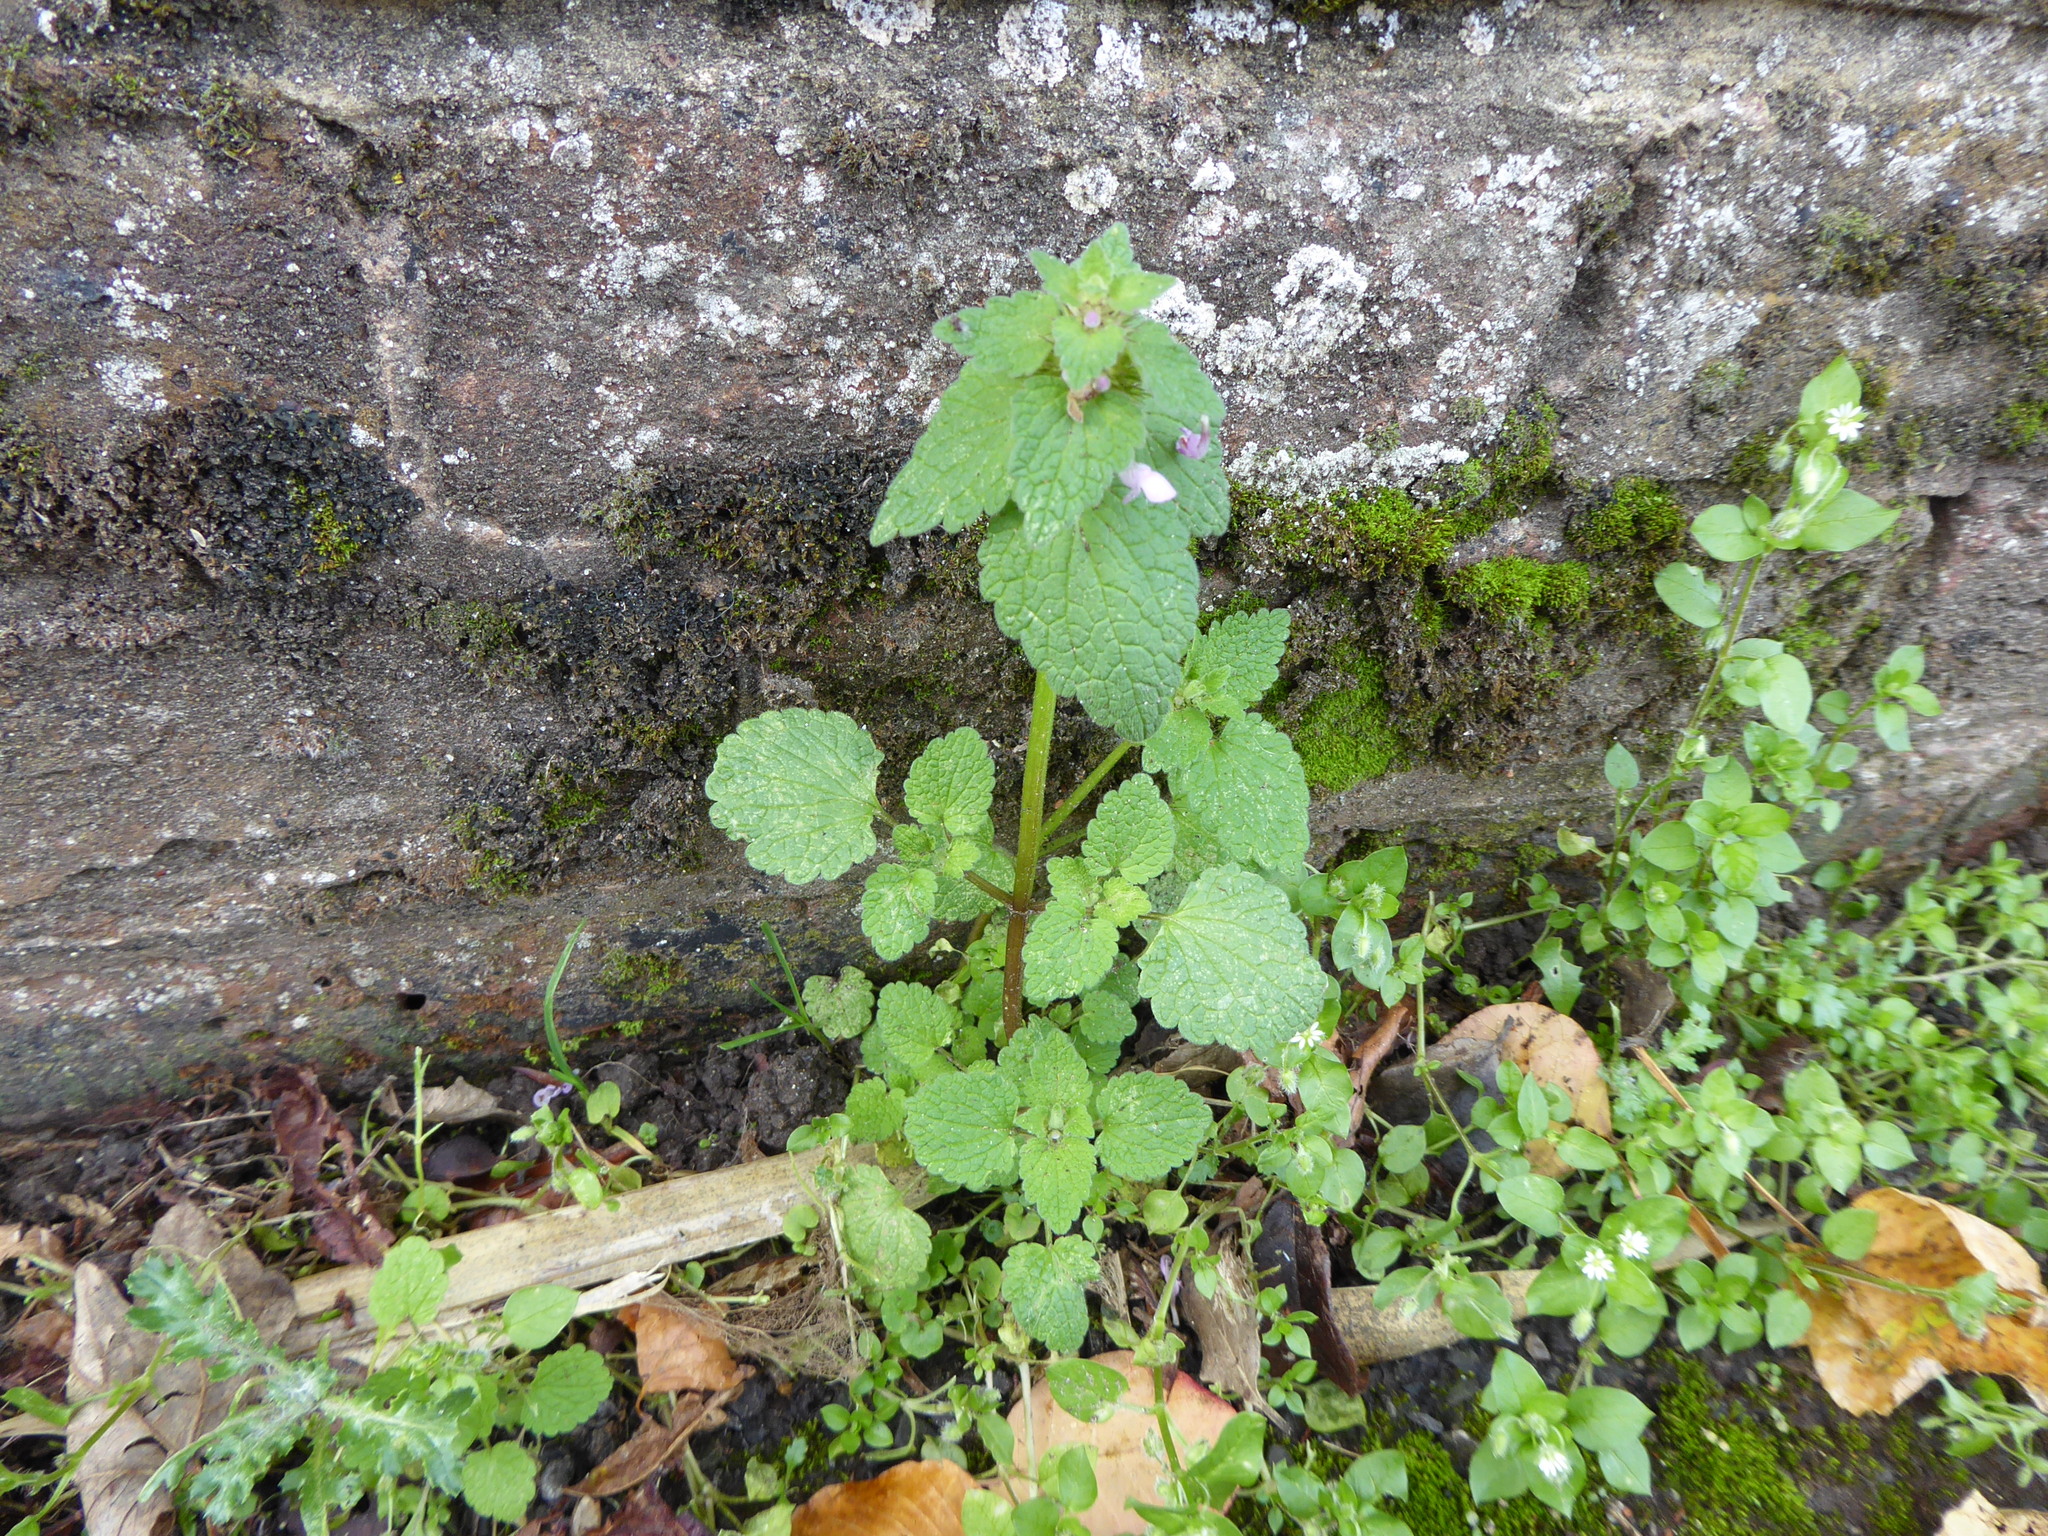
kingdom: Plantae
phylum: Tracheophyta
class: Magnoliopsida
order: Lamiales
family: Lamiaceae
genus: Lamium
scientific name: Lamium purpureum
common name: Red dead-nettle
